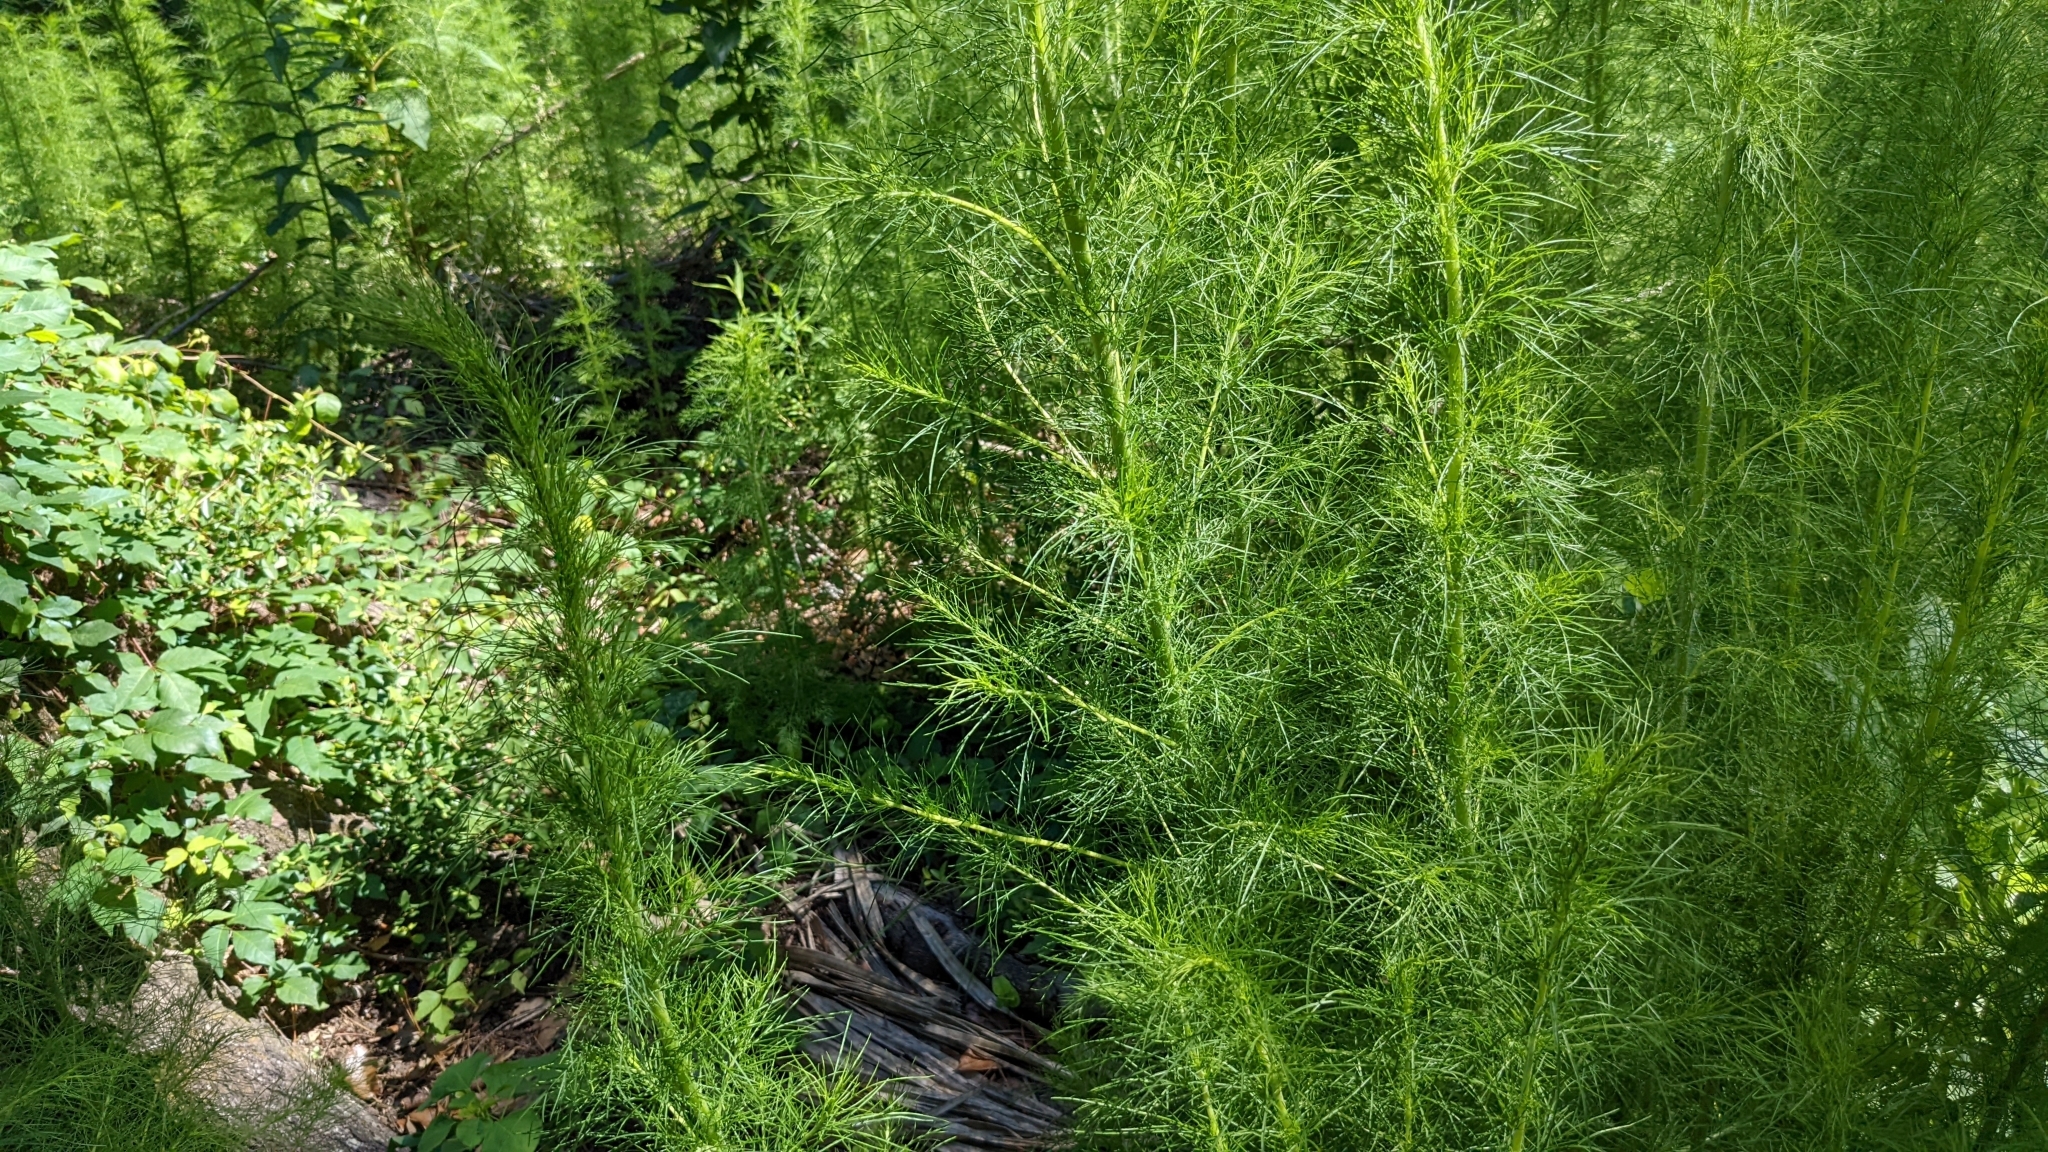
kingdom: Plantae
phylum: Tracheophyta
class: Magnoliopsida
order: Asterales
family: Asteraceae
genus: Eupatorium
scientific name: Eupatorium capillifolium
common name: Dog-fennel
